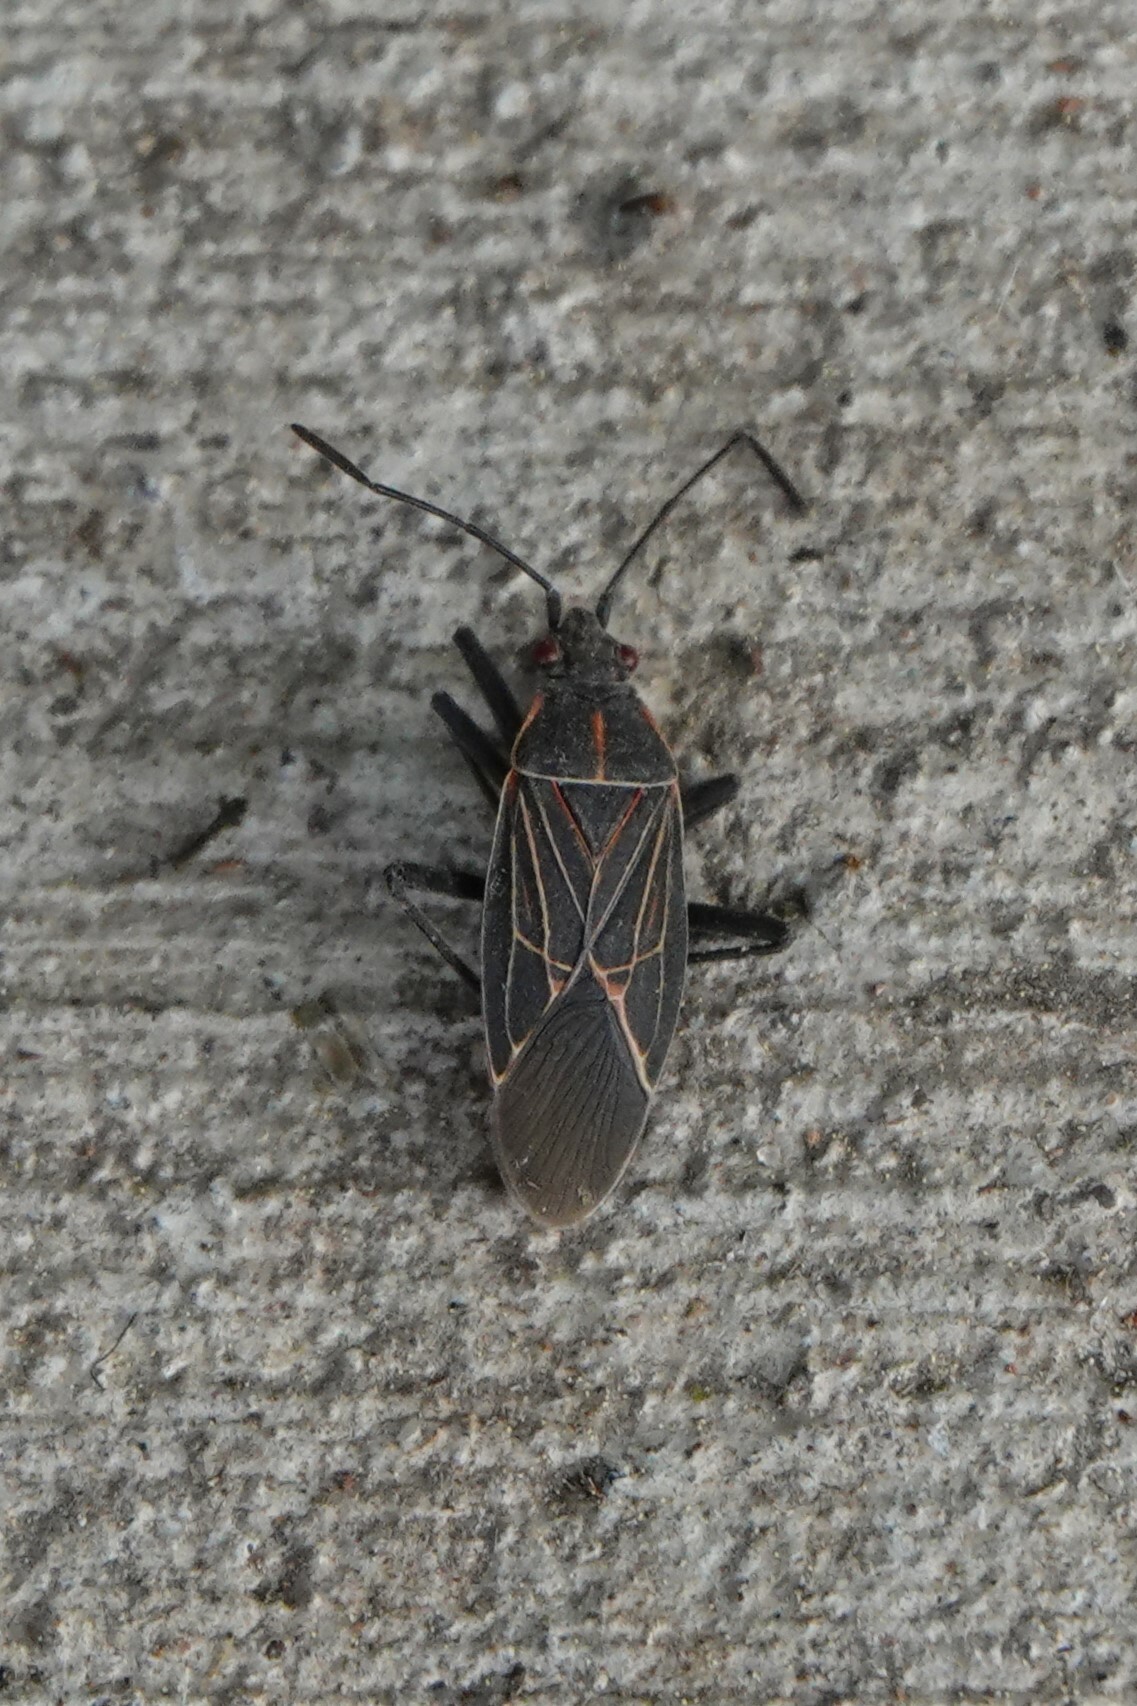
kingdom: Animalia
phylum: Arthropoda
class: Insecta
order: Hemiptera
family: Rhopalidae
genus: Boisea
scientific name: Boisea rubrolineata
